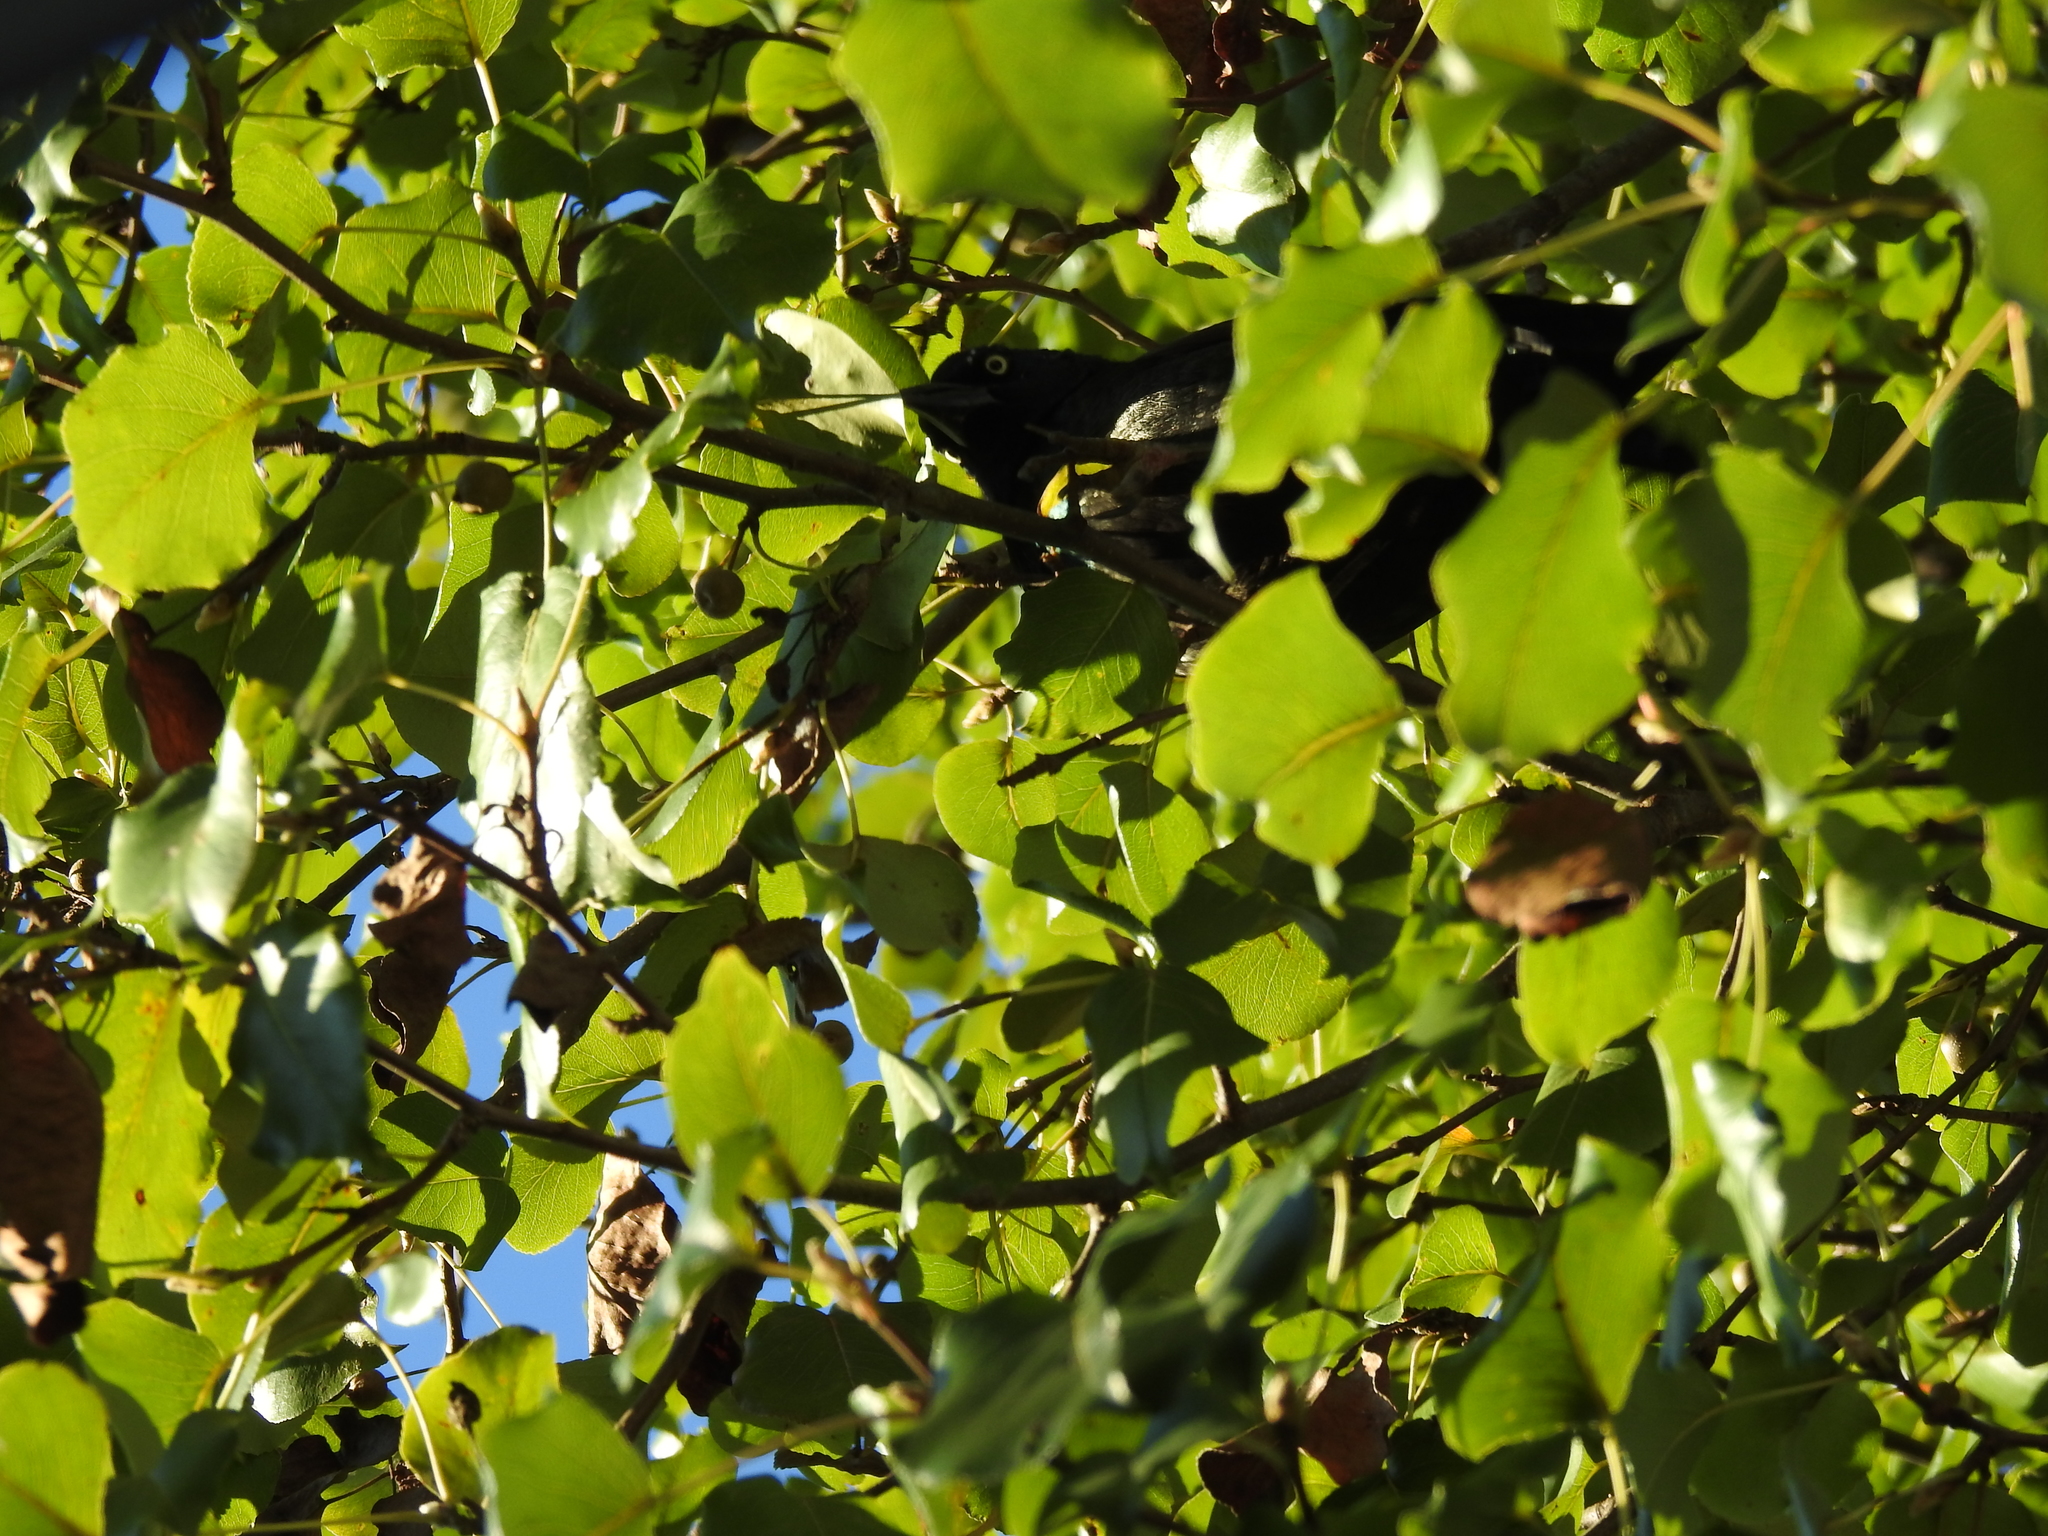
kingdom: Animalia
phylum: Chordata
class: Aves
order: Passeriformes
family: Icteridae
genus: Quiscalus
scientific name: Quiscalus quiscula
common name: Common grackle
